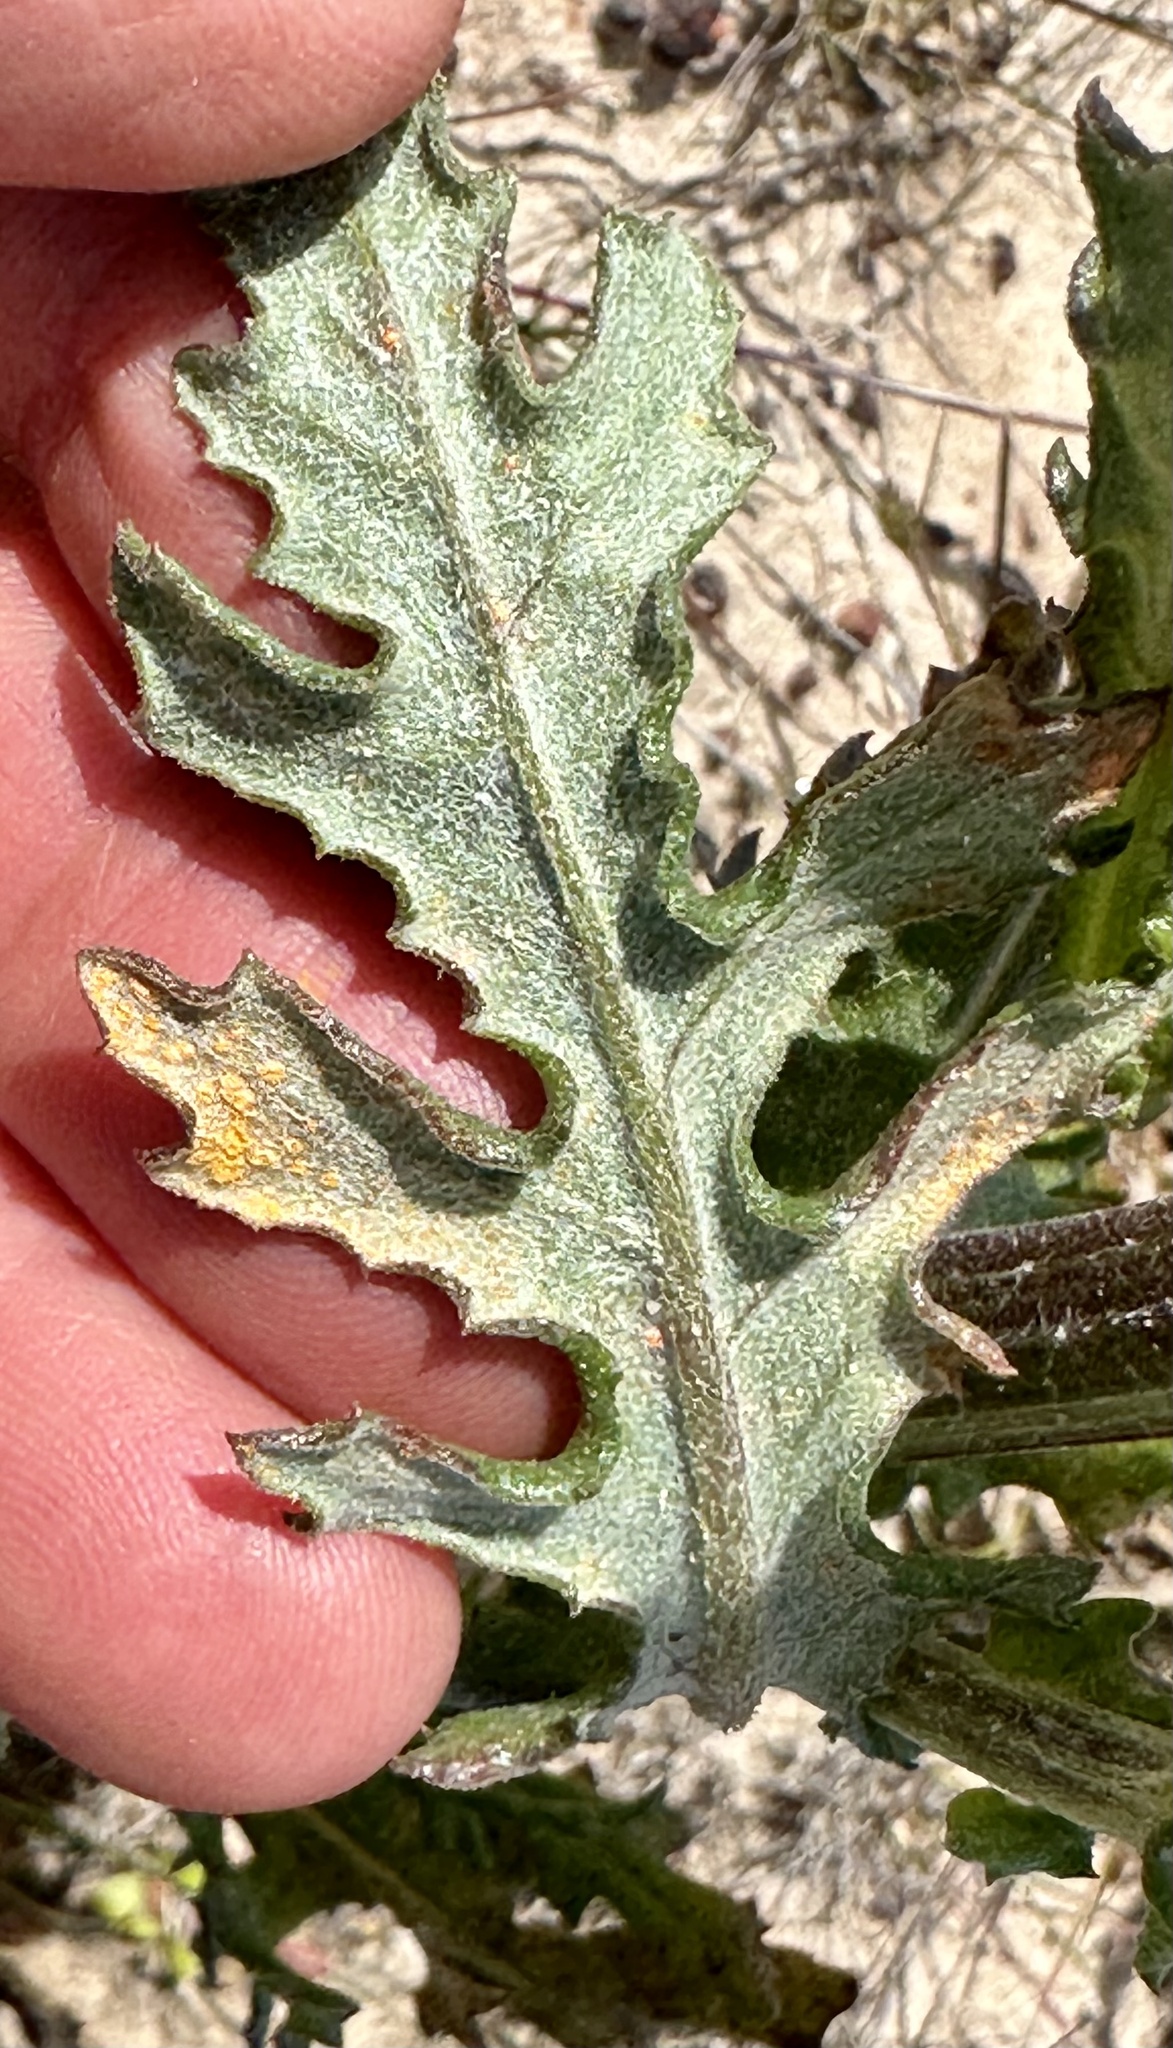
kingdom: Plantae
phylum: Tracheophyta
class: Magnoliopsida
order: Asterales
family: Asteraceae
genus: Senecio
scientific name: Senecio glomeratus
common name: Cutleaf burnweed
